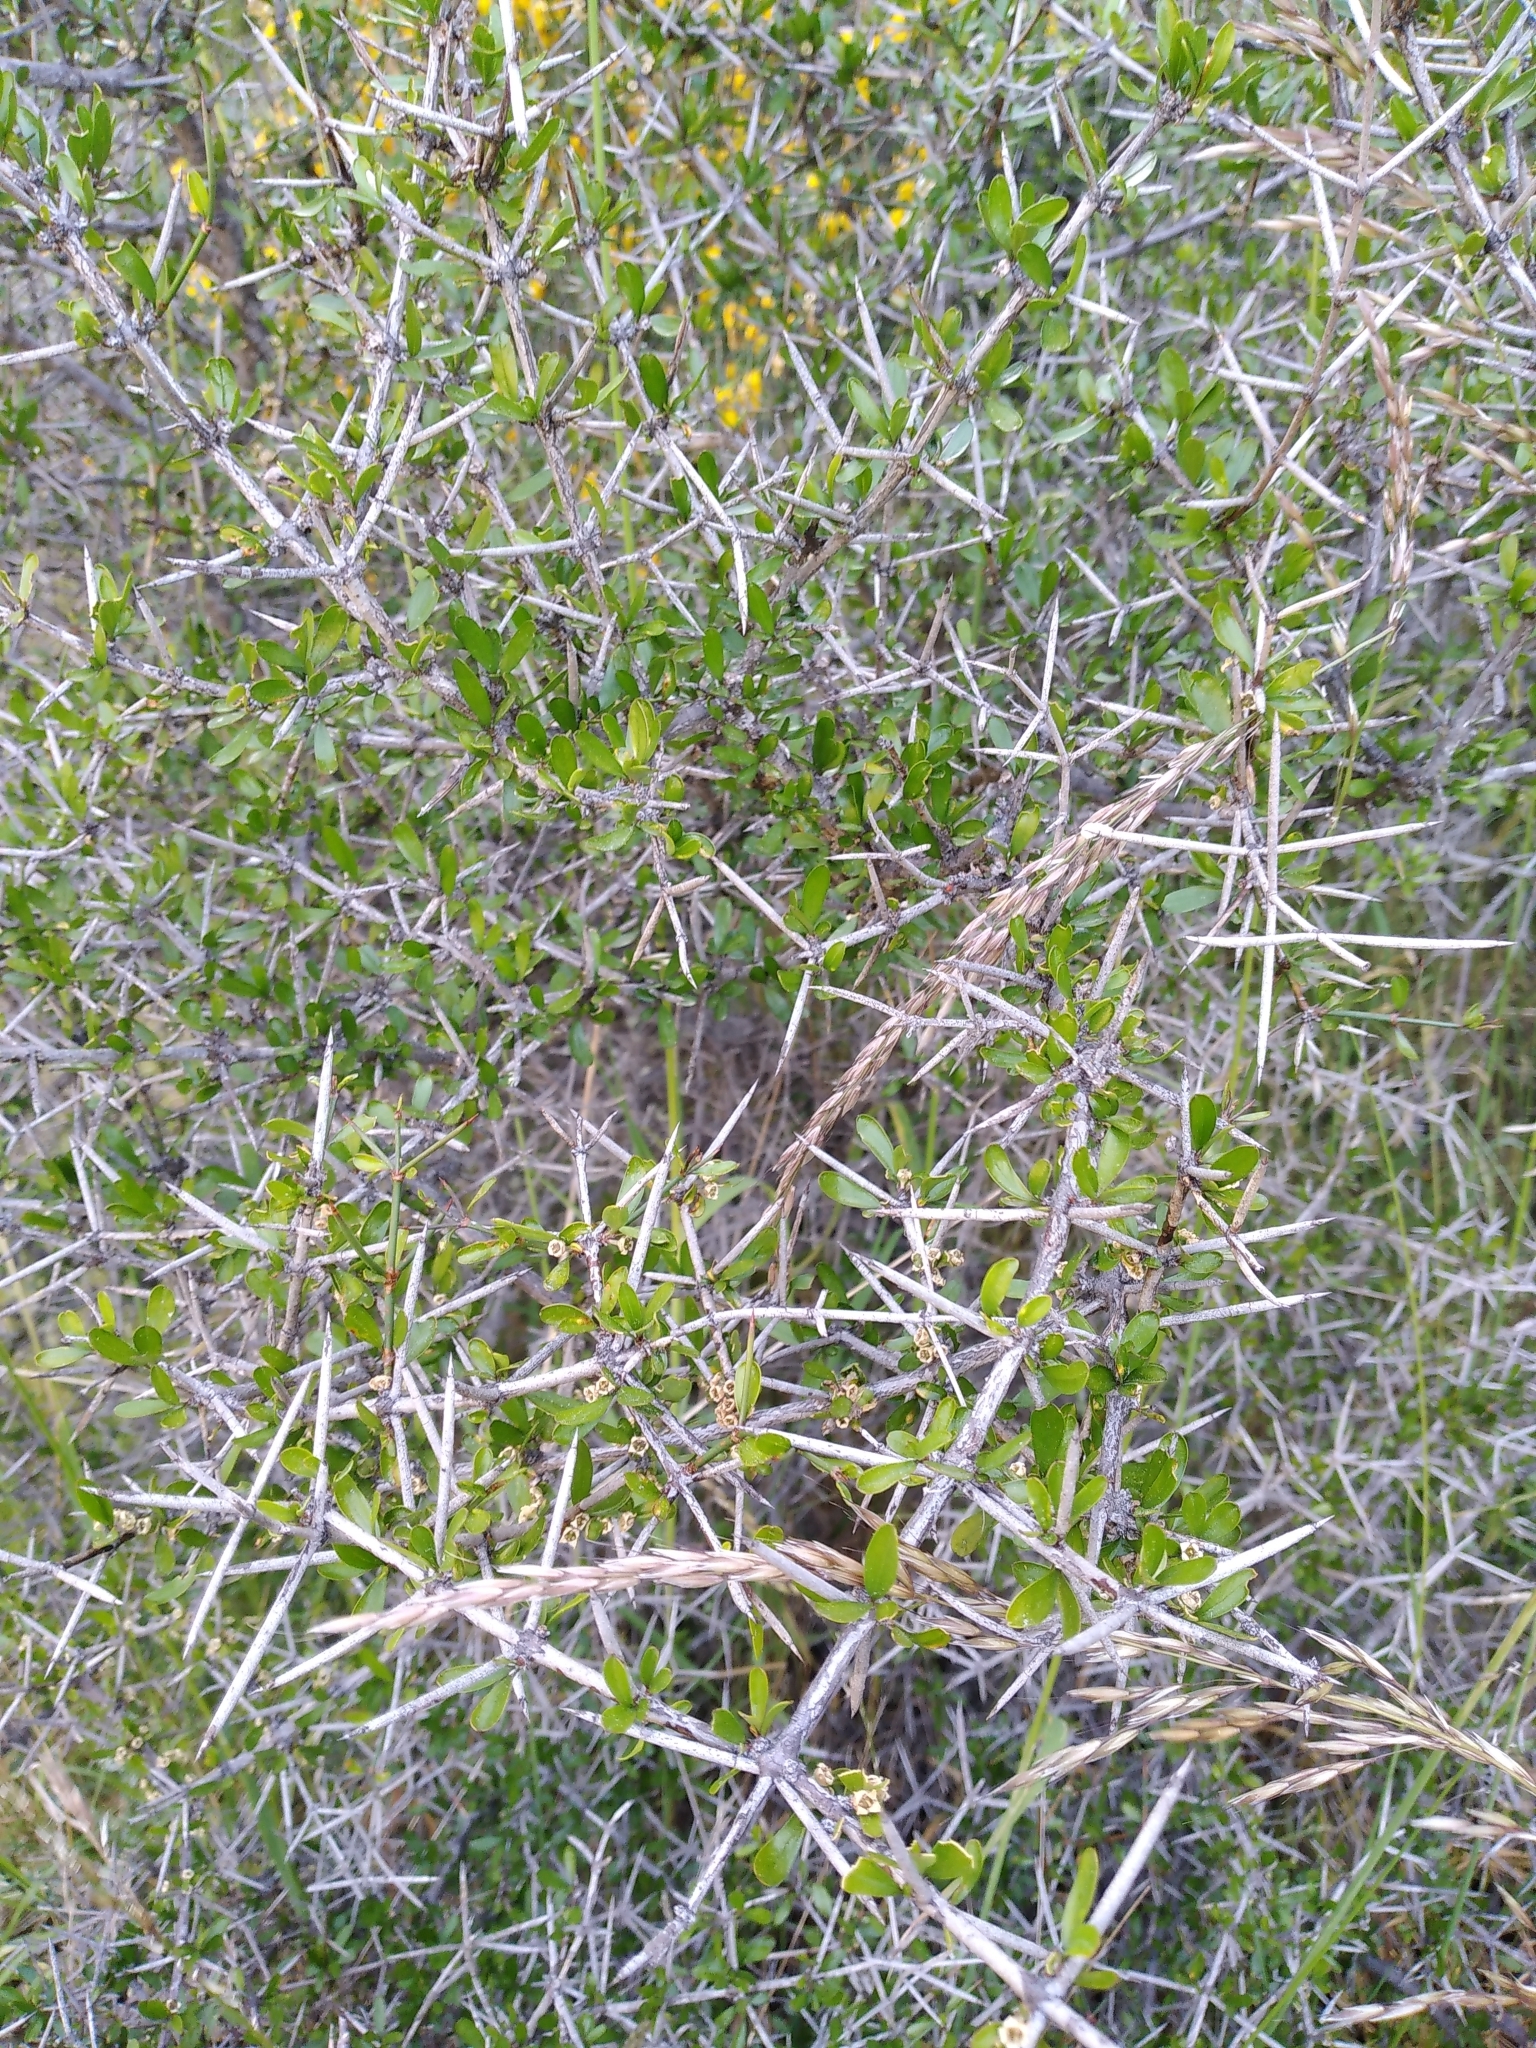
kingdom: Plantae
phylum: Tracheophyta
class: Magnoliopsida
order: Rosales
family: Rhamnaceae
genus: Discaria
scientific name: Discaria toumatou
